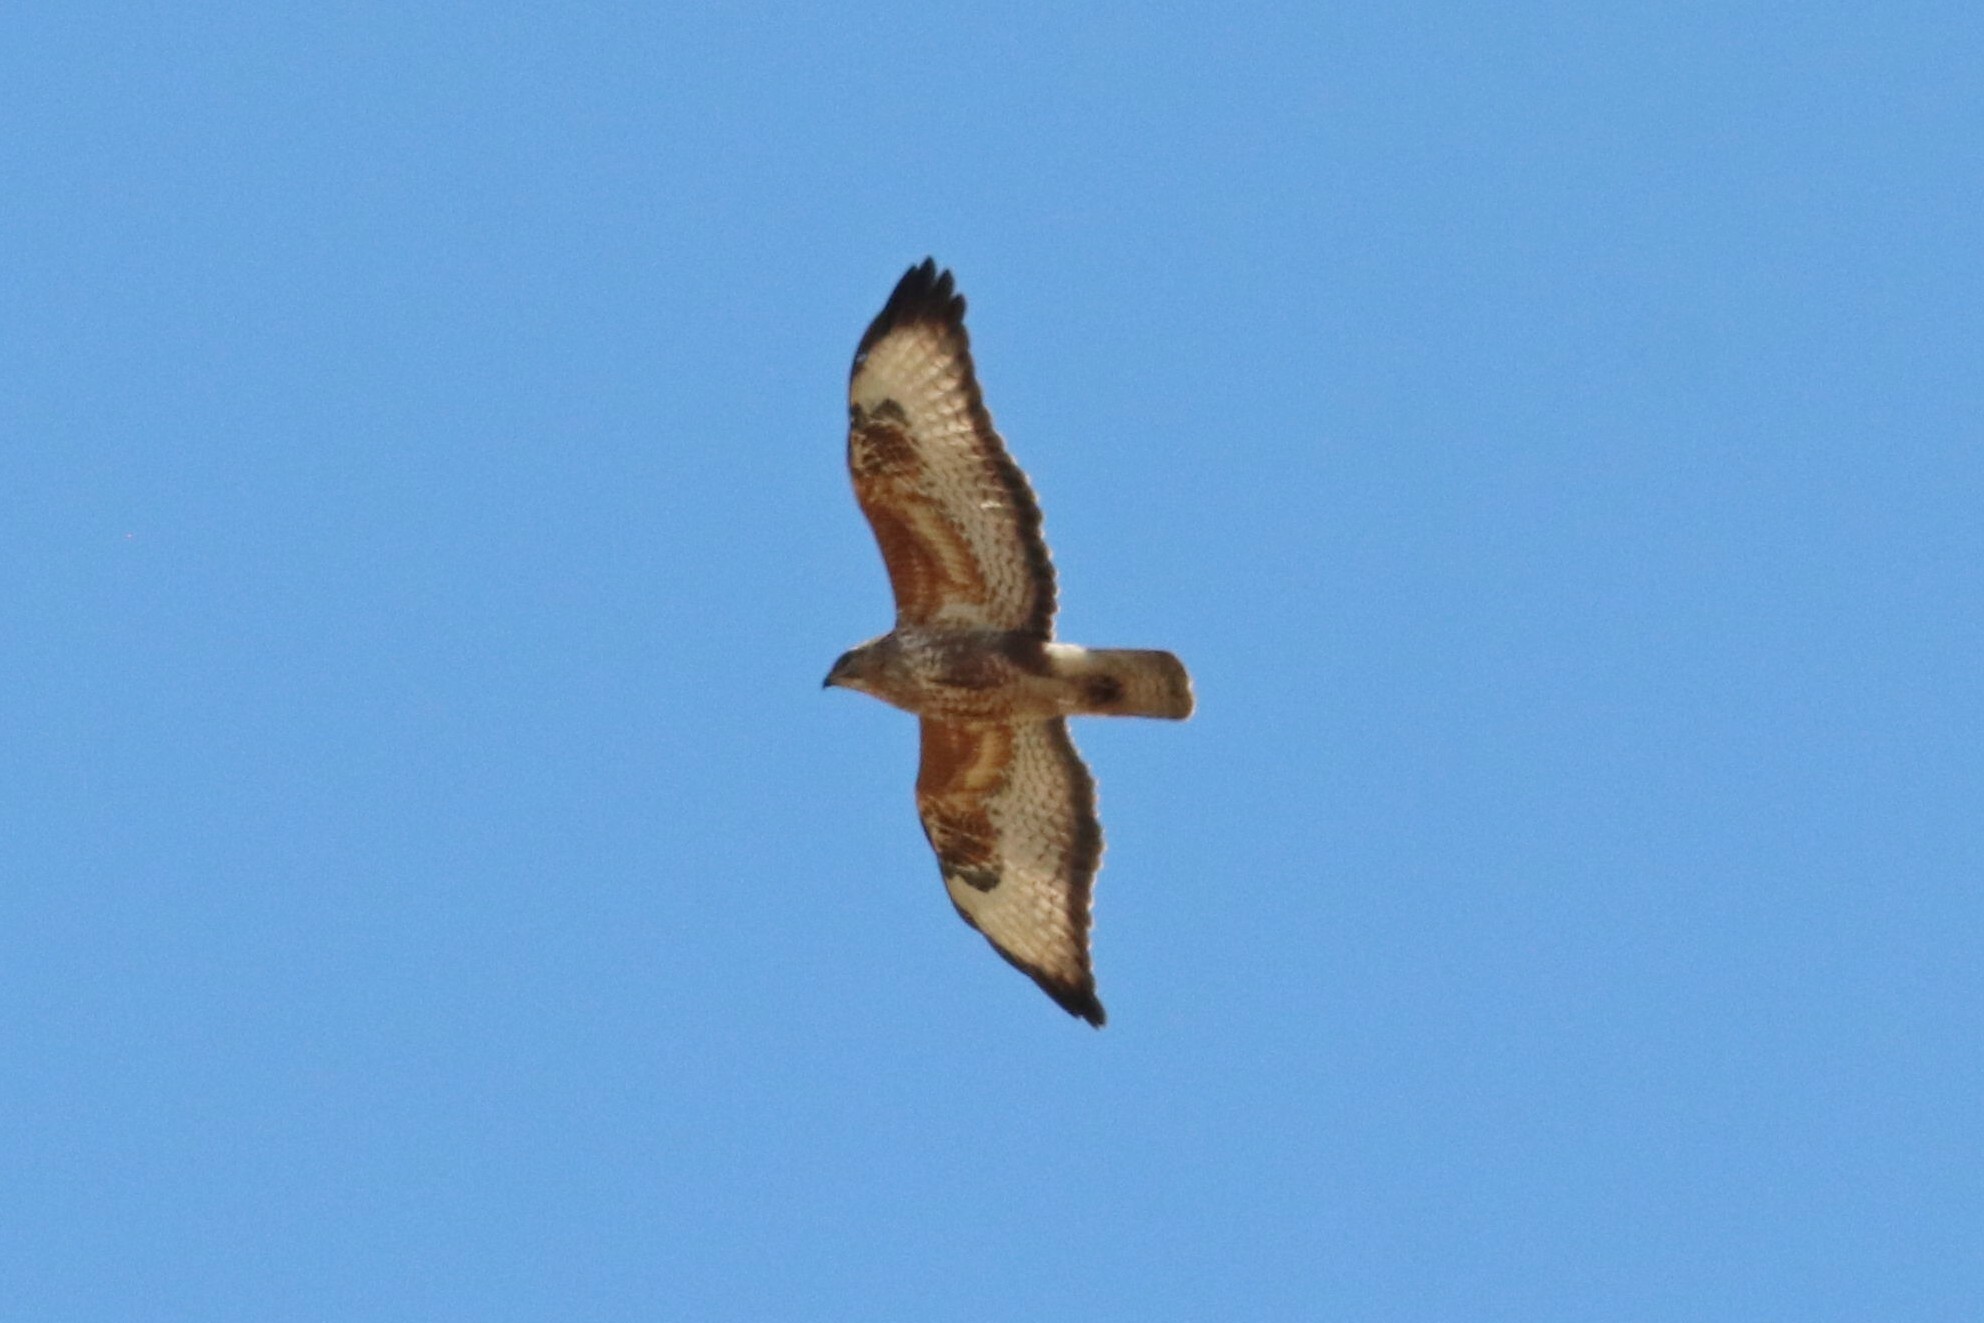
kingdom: Animalia
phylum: Chordata
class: Aves
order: Accipitriformes
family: Accipitridae
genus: Buteo
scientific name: Buteo buteo
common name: Common buzzard
